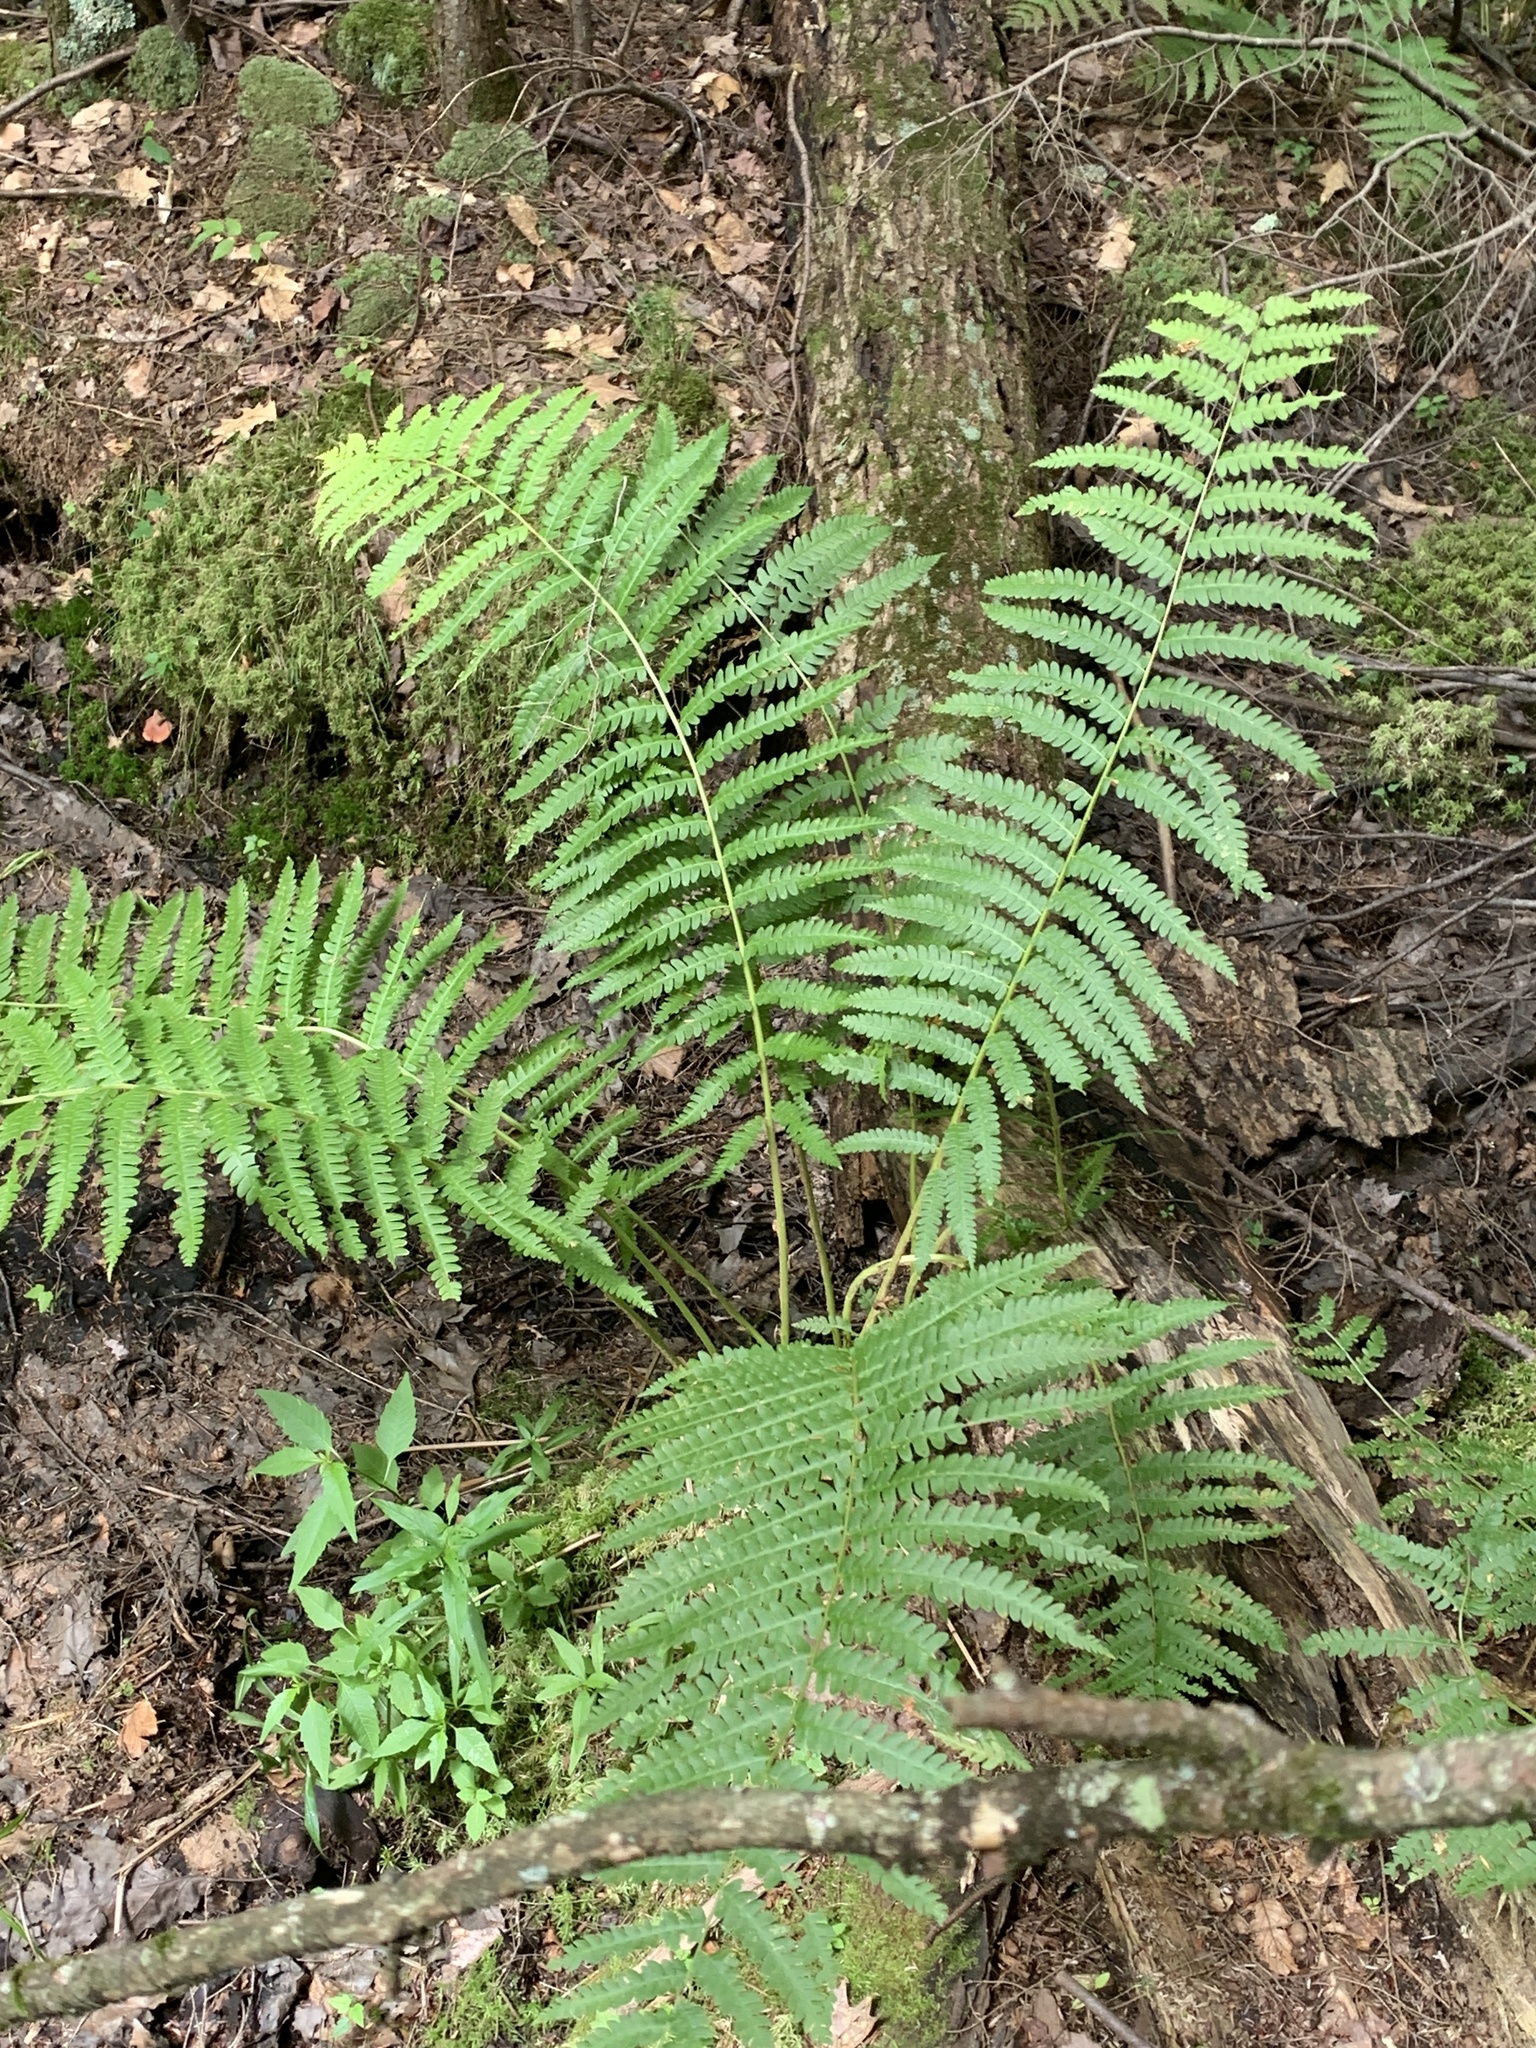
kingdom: Plantae
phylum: Tracheophyta
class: Polypodiopsida
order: Osmundales
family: Osmundaceae
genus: Osmundastrum
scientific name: Osmundastrum cinnamomeum
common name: Cinnamon fern
